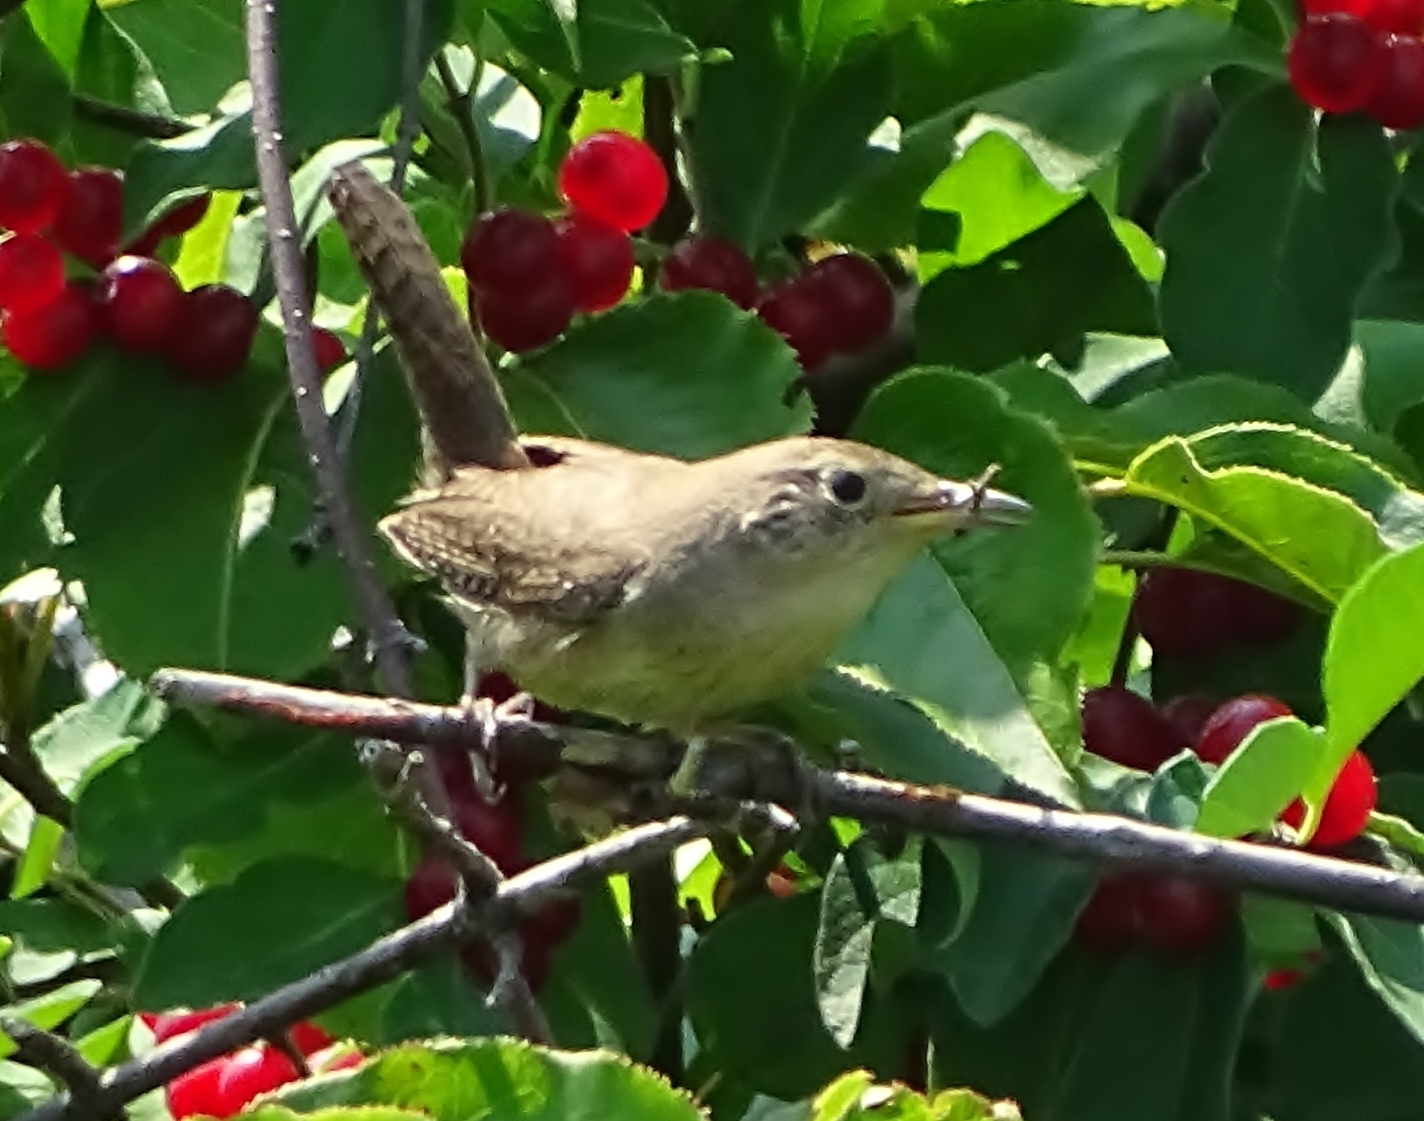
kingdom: Animalia
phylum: Chordata
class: Aves
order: Passeriformes
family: Troglodytidae
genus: Troglodytes
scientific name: Troglodytes aedon
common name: House wren
